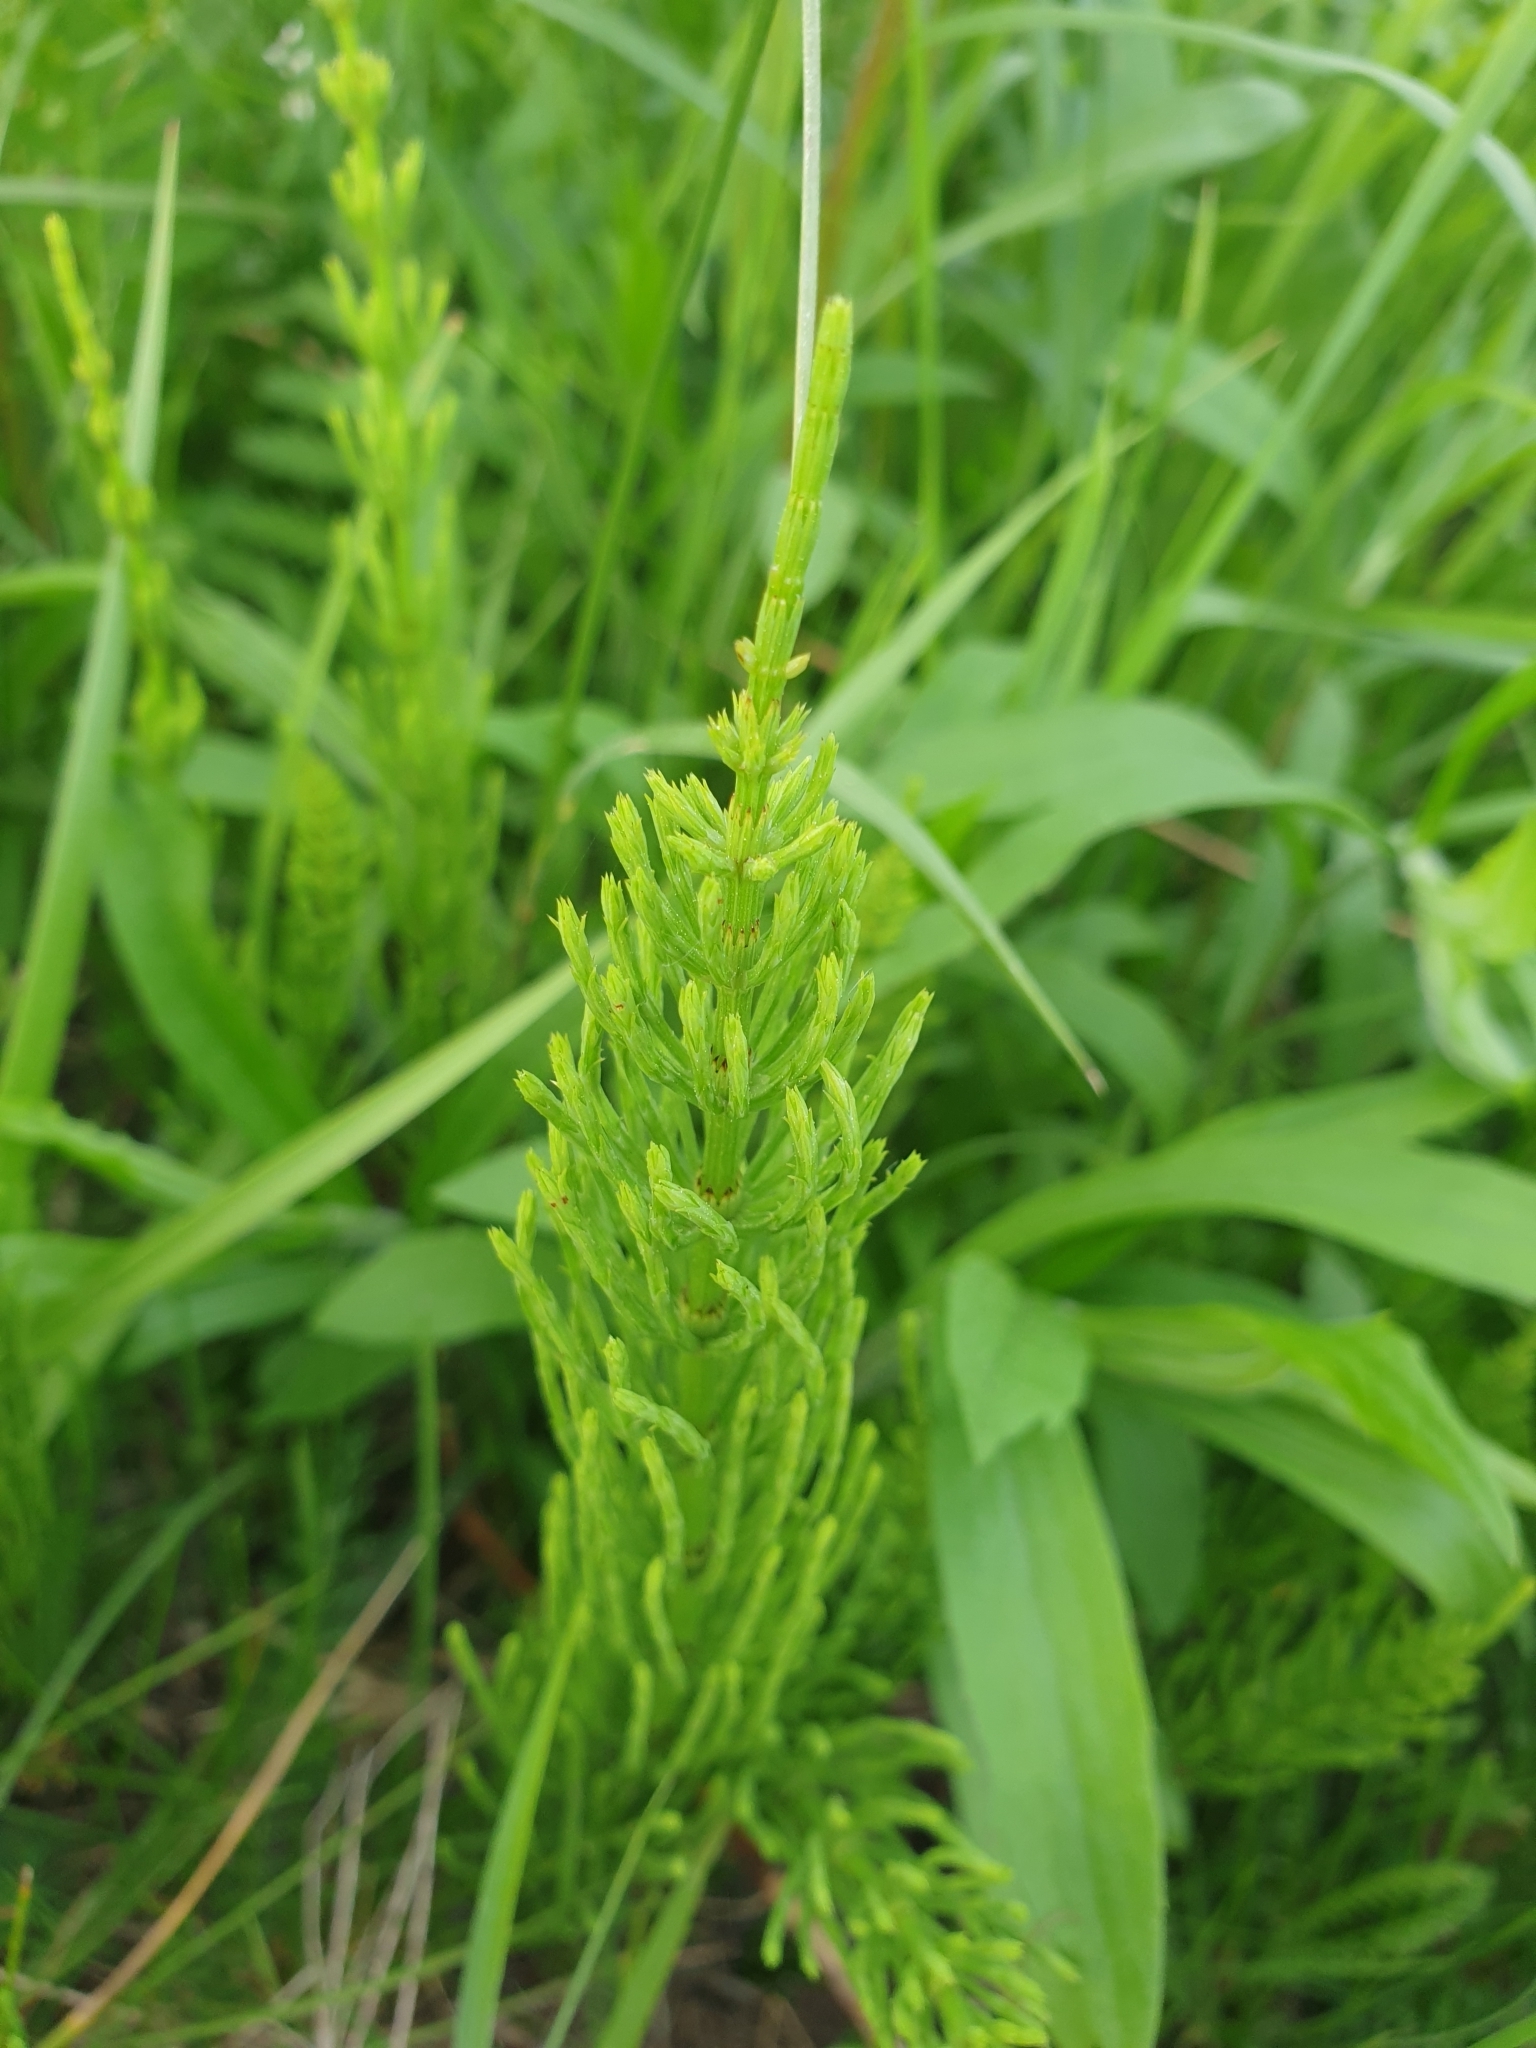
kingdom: Plantae
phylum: Tracheophyta
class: Polypodiopsida
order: Equisetales
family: Equisetaceae
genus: Equisetum
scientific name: Equisetum arvense
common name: Field horsetail
